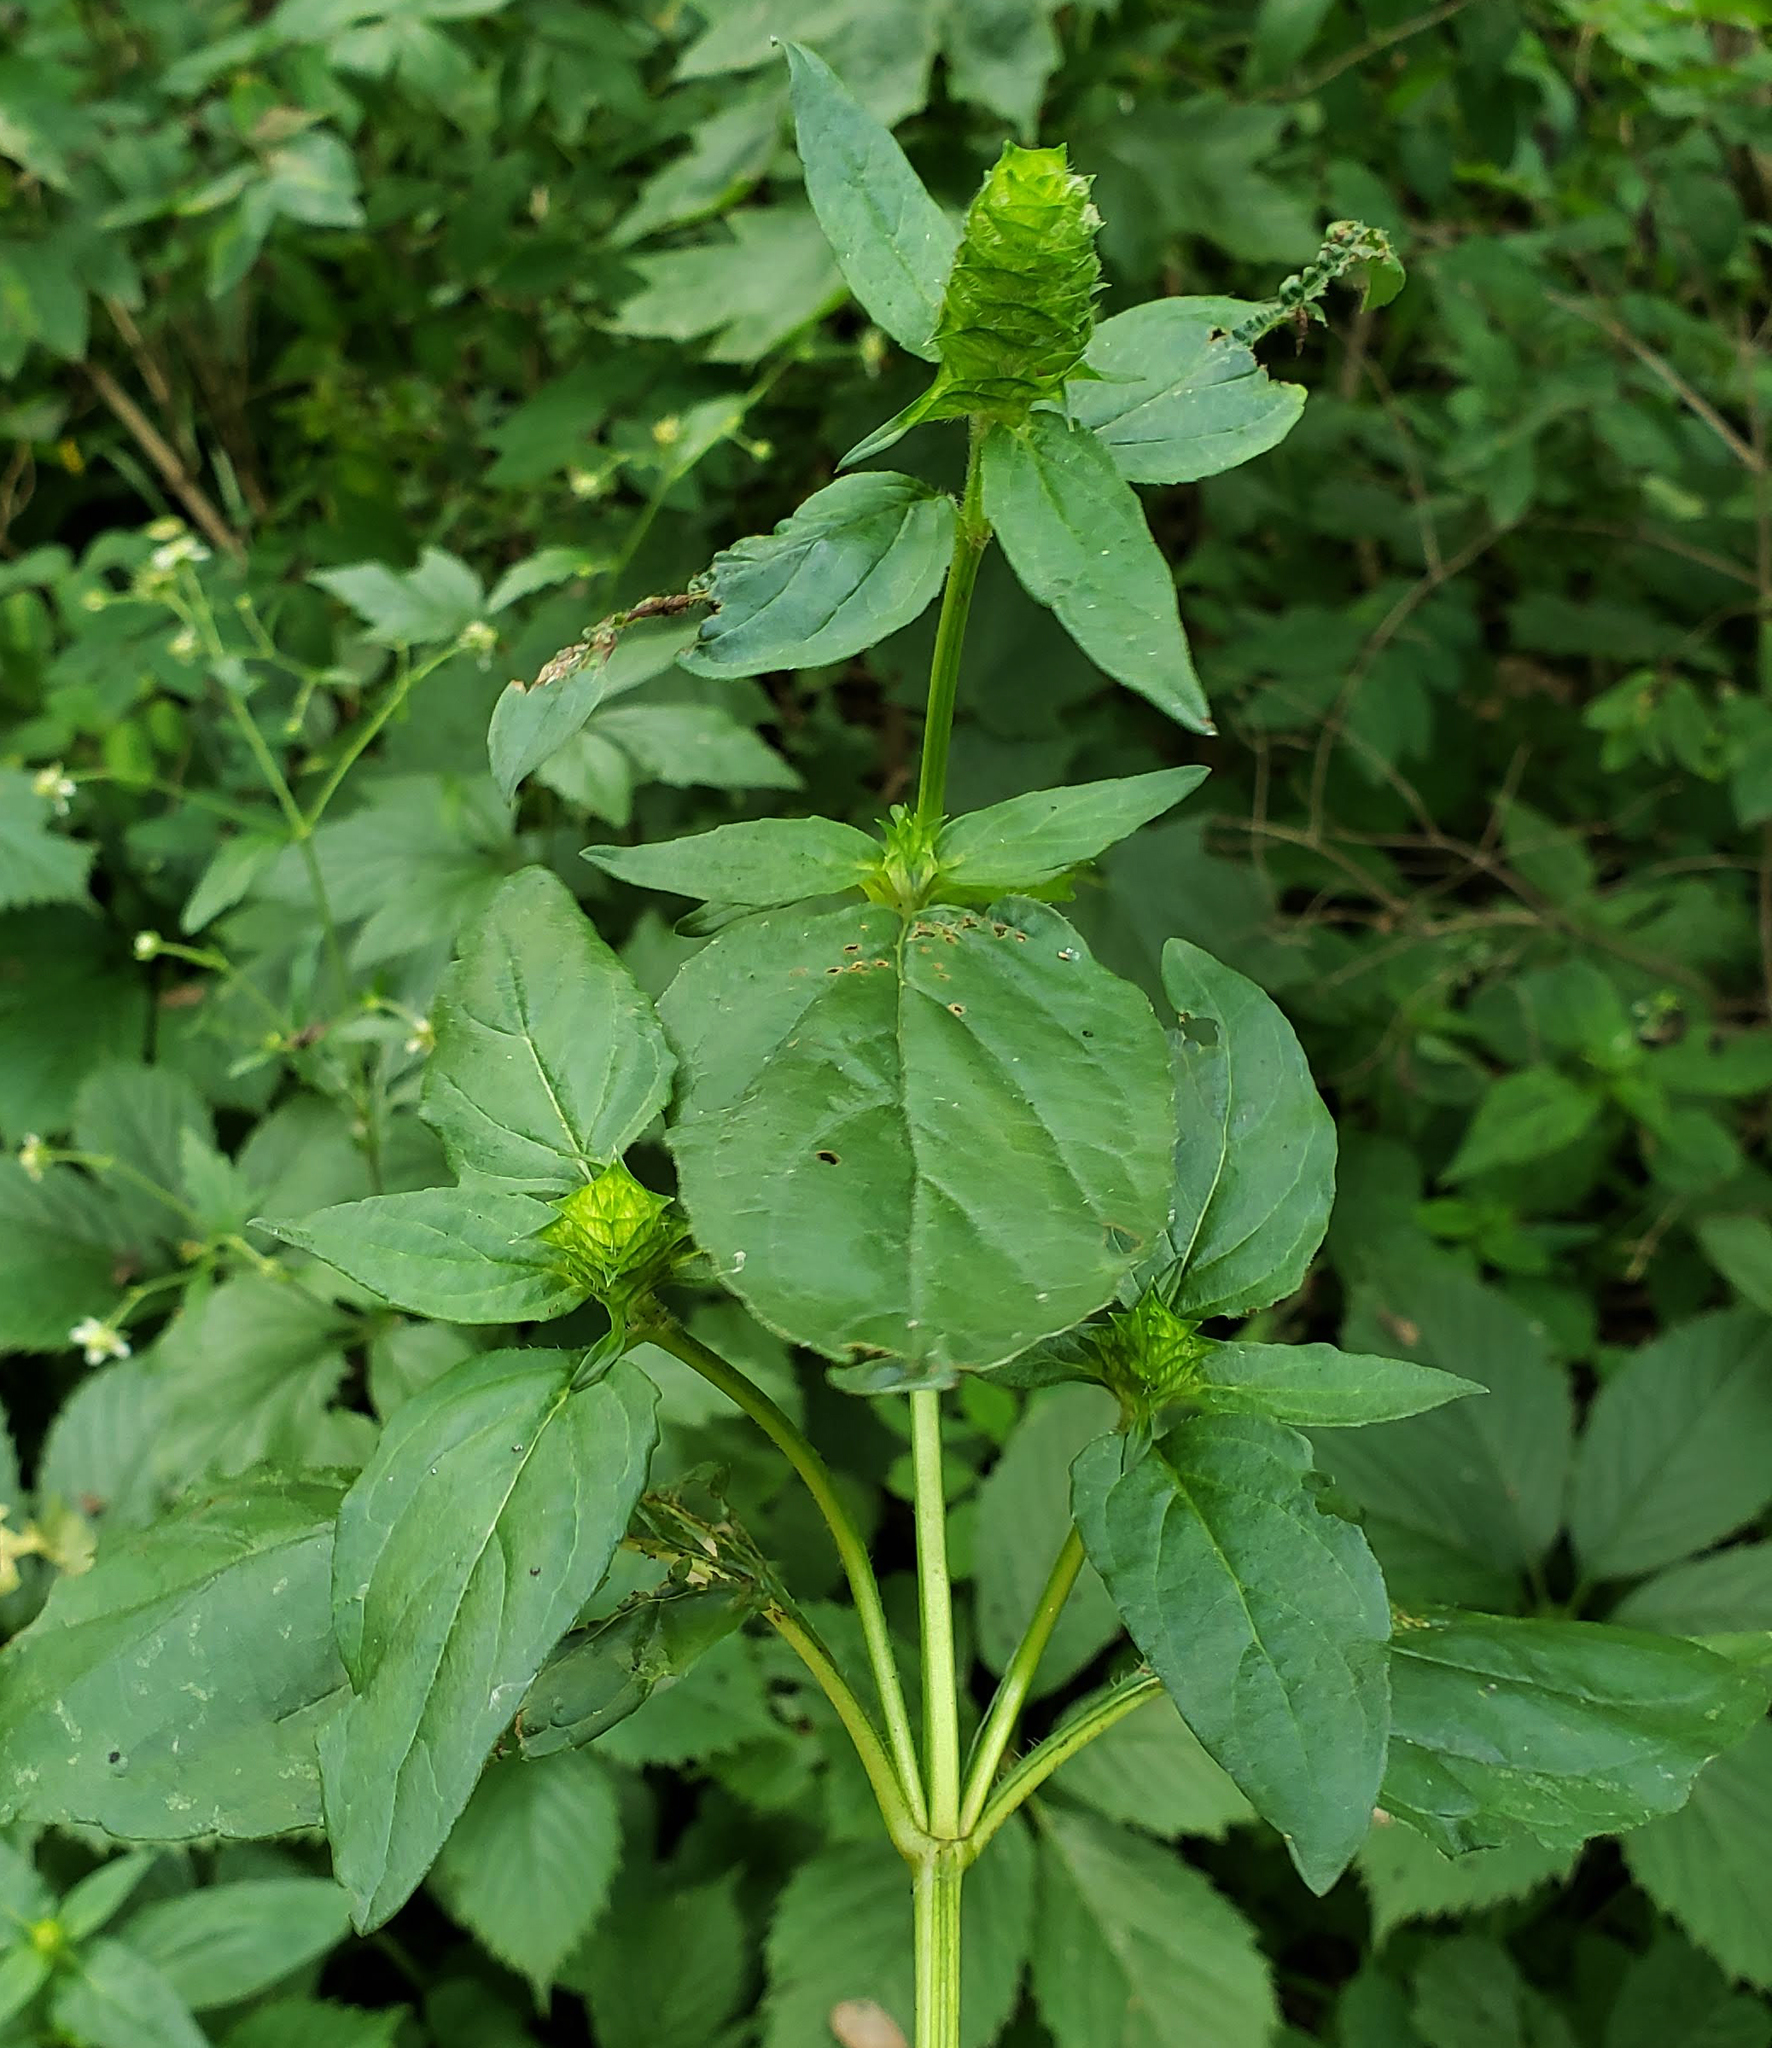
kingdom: Plantae
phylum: Tracheophyta
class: Magnoliopsida
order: Lamiales
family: Lamiaceae
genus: Prunella
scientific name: Prunella vulgaris
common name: Heal-all
